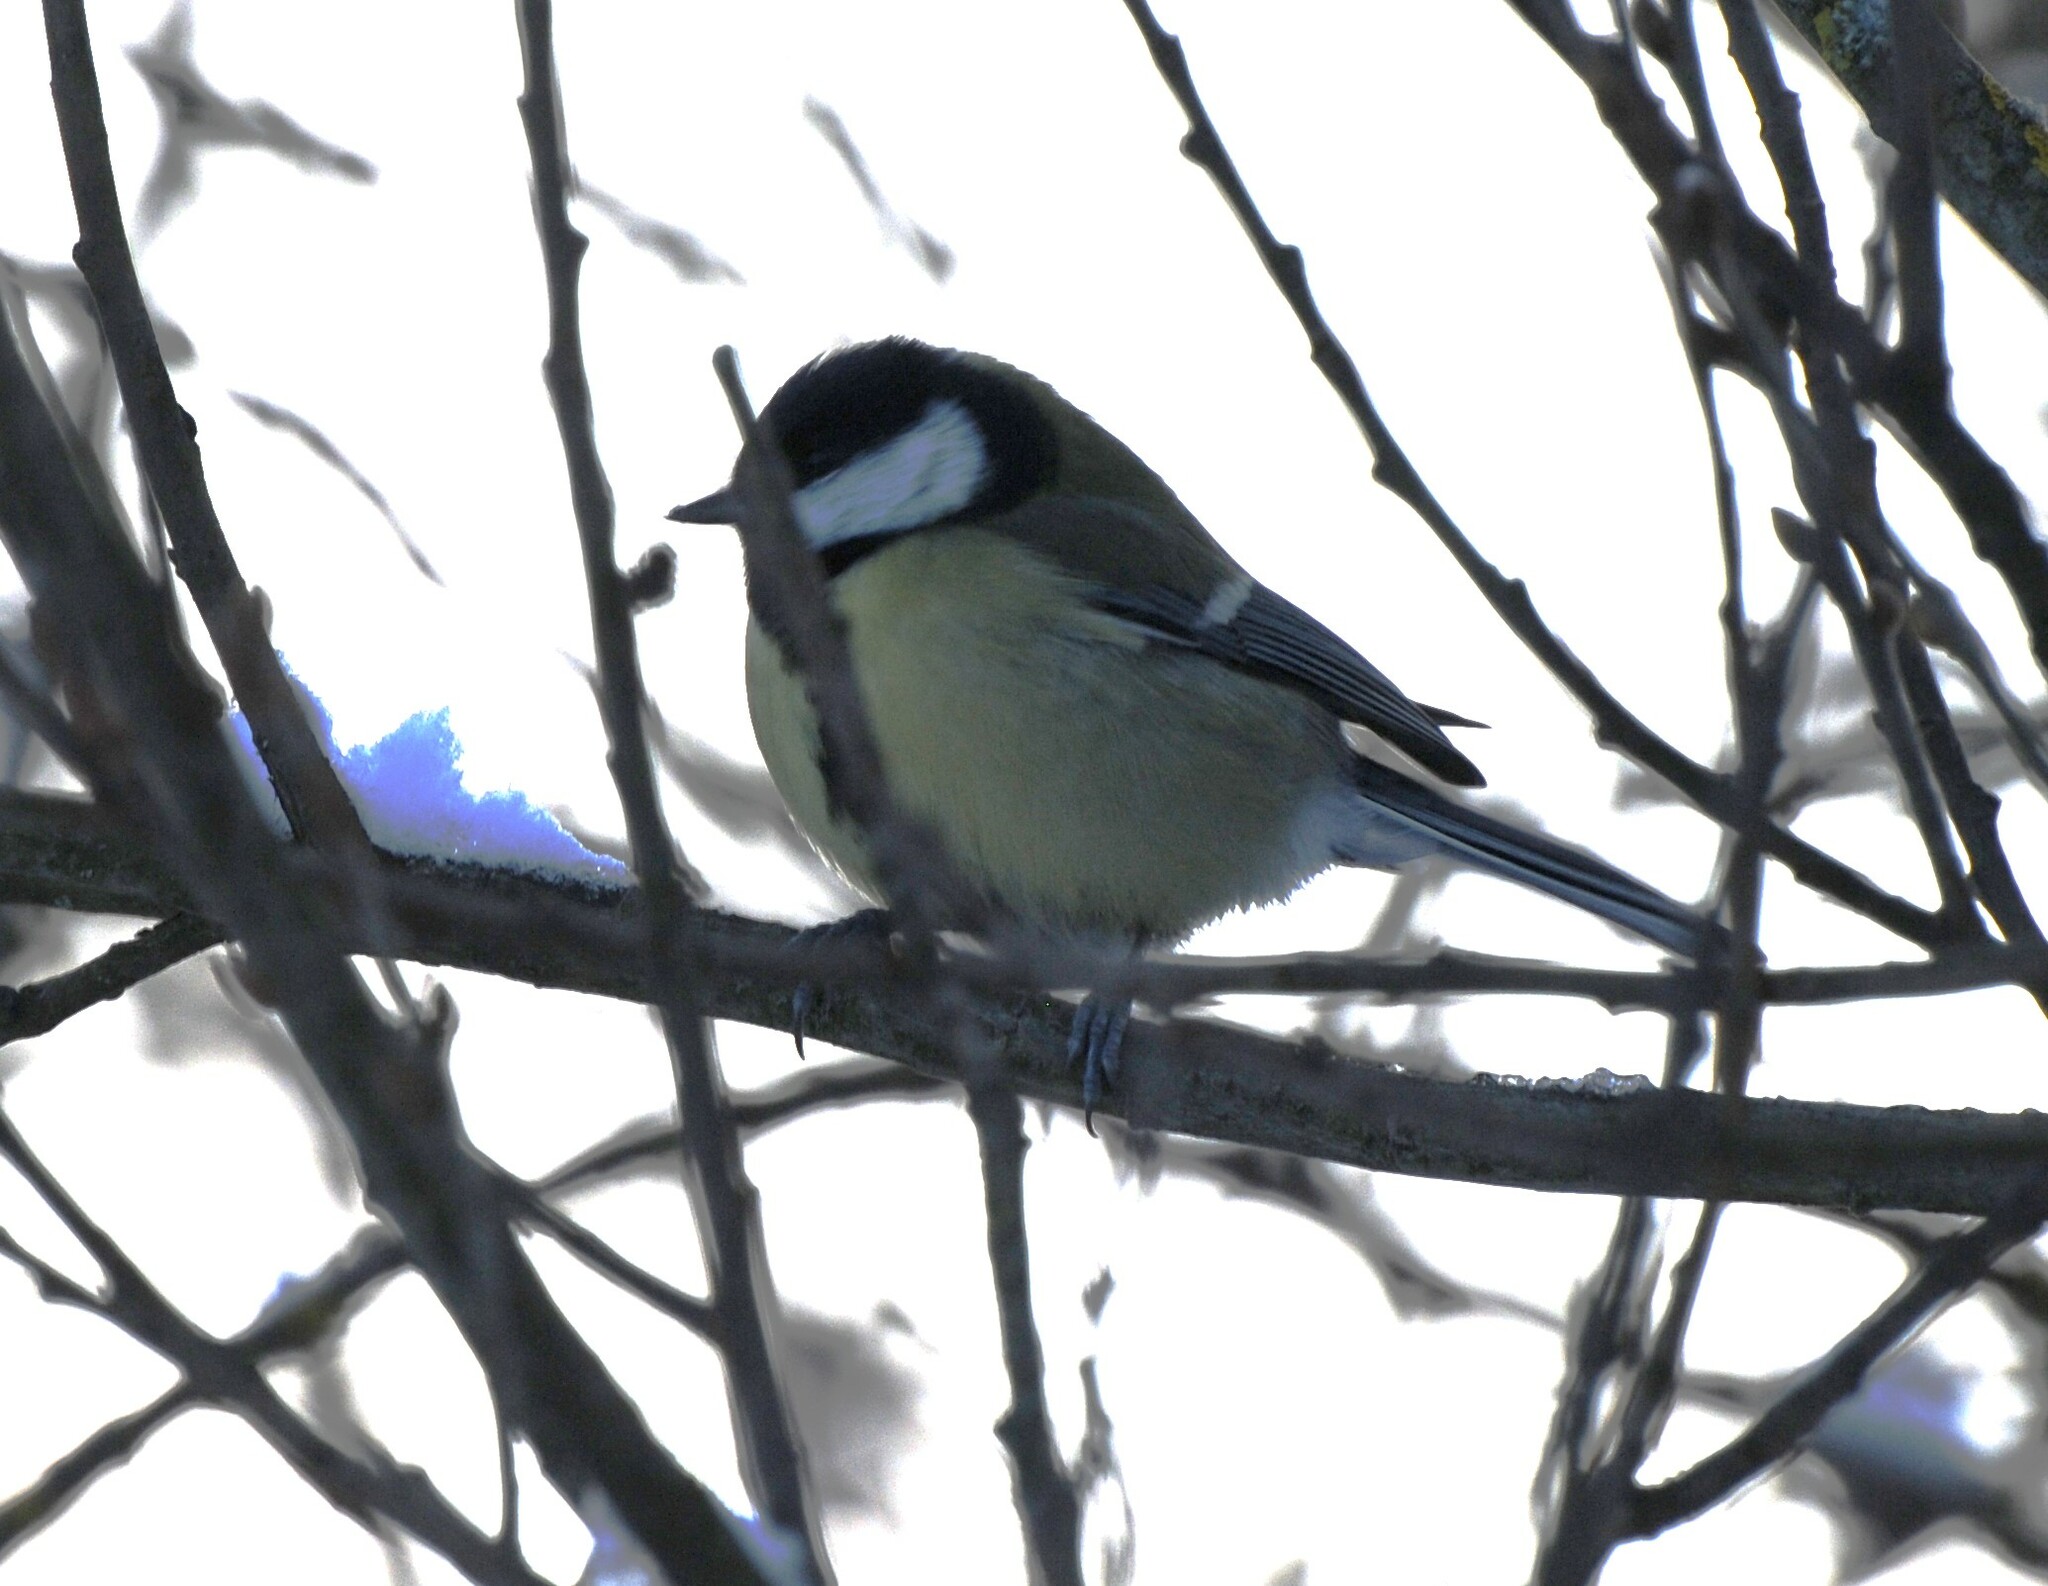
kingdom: Animalia
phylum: Chordata
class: Aves
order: Passeriformes
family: Paridae
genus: Parus
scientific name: Parus major
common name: Great tit
